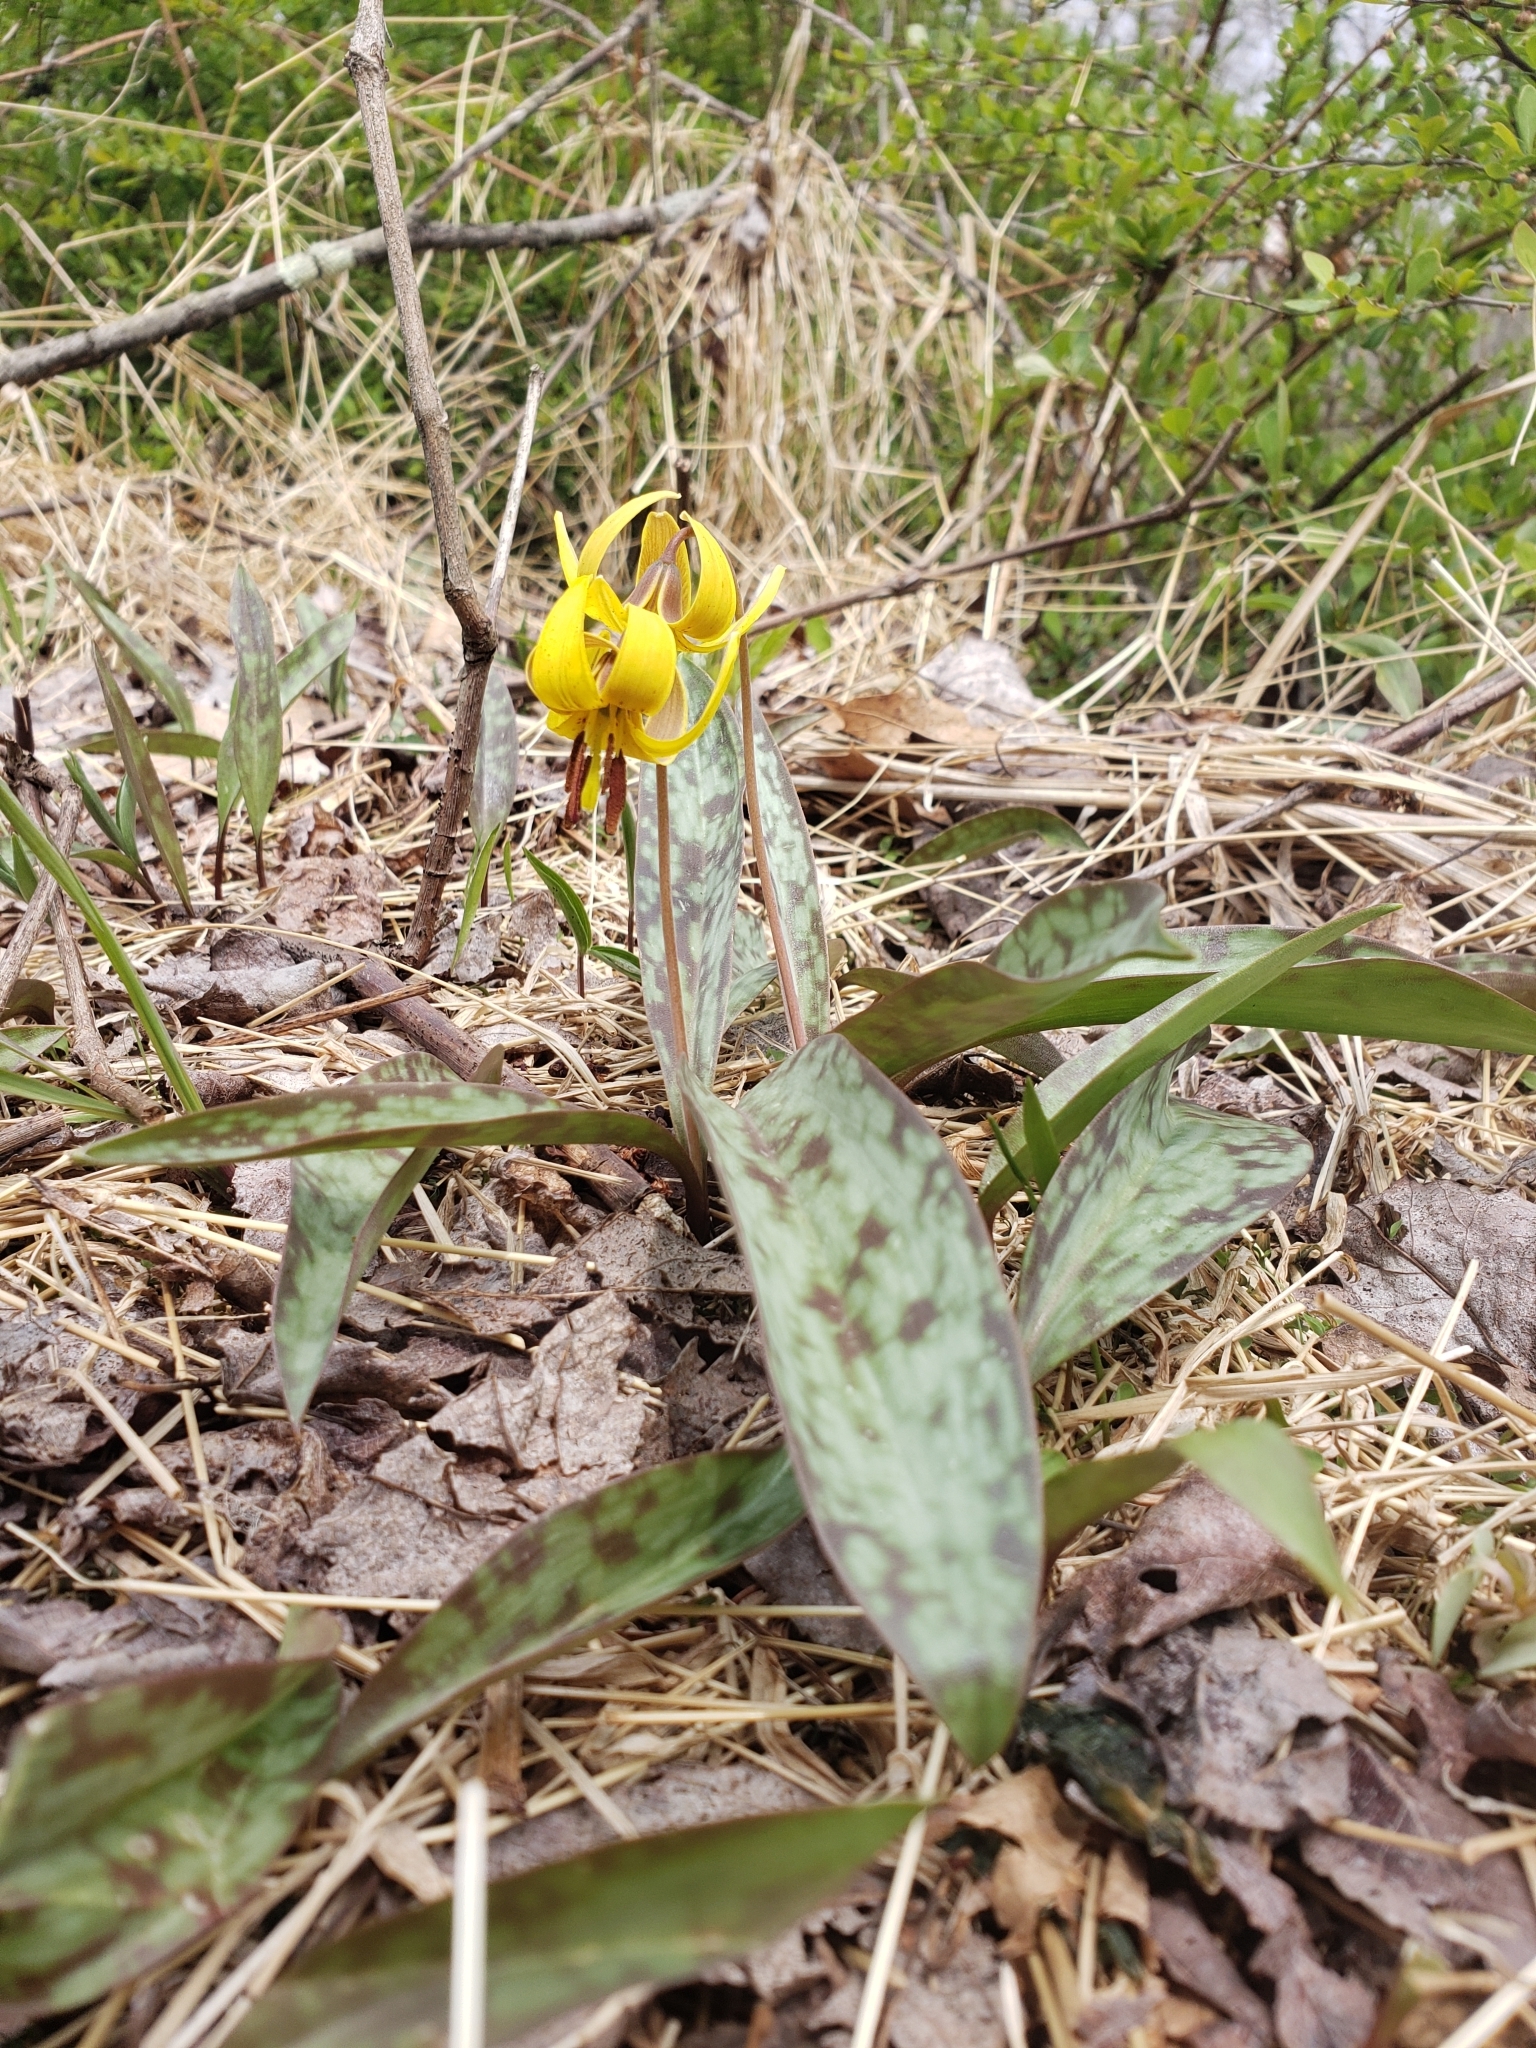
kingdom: Plantae
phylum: Tracheophyta
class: Liliopsida
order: Liliales
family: Liliaceae
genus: Erythronium
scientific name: Erythronium americanum
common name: Yellow adder's-tongue
